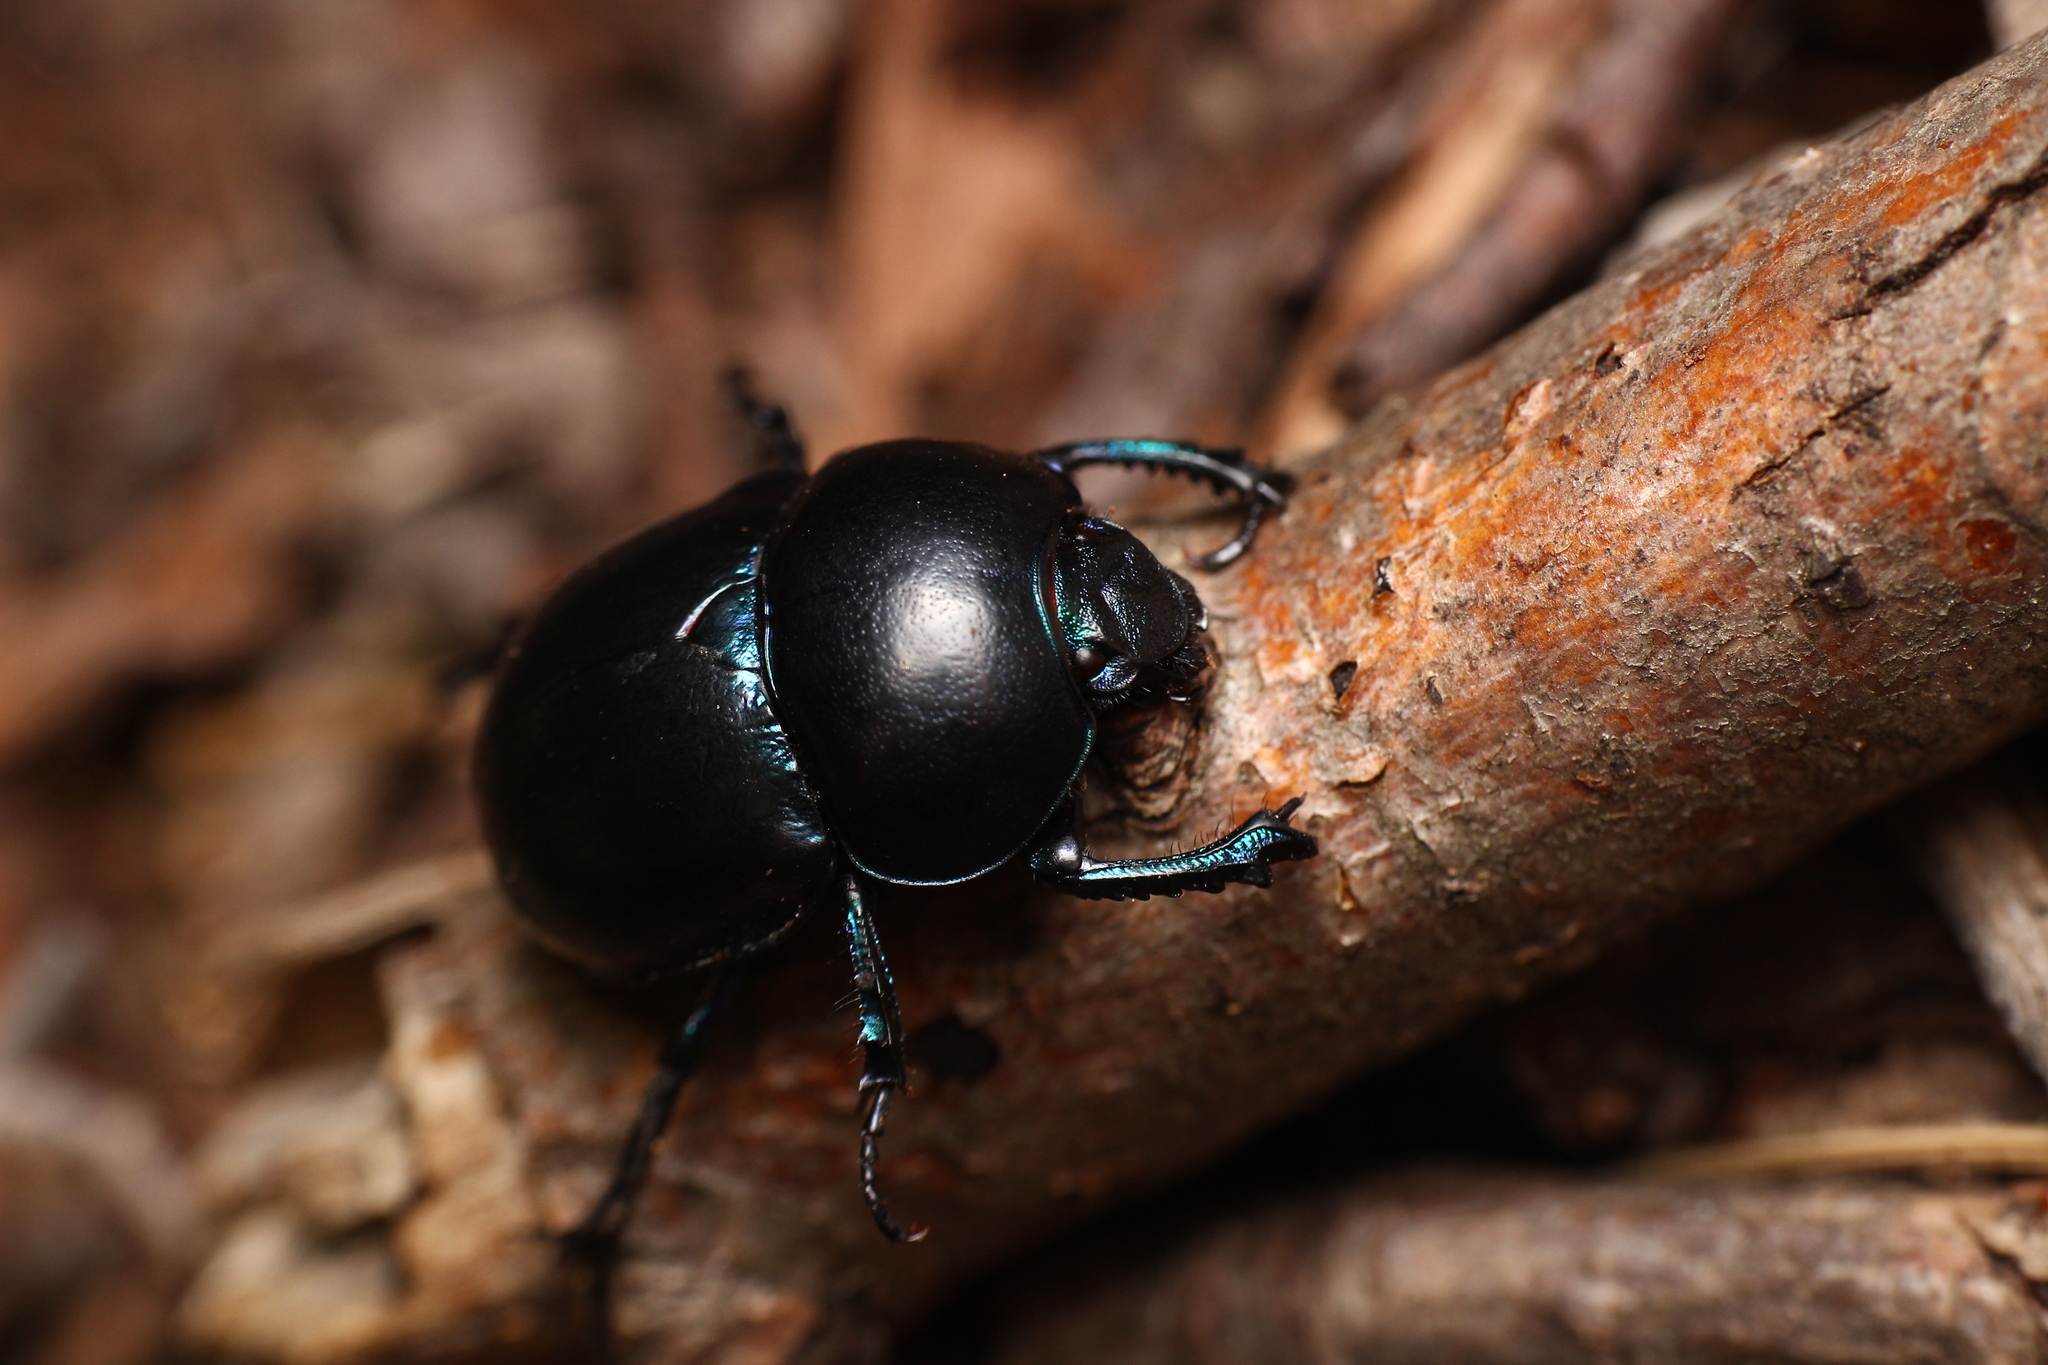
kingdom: Animalia
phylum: Arthropoda
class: Insecta
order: Coleoptera
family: Geotrupidae
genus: Trypocopris
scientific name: Trypocopris vernalis
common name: Spring dumbledor
